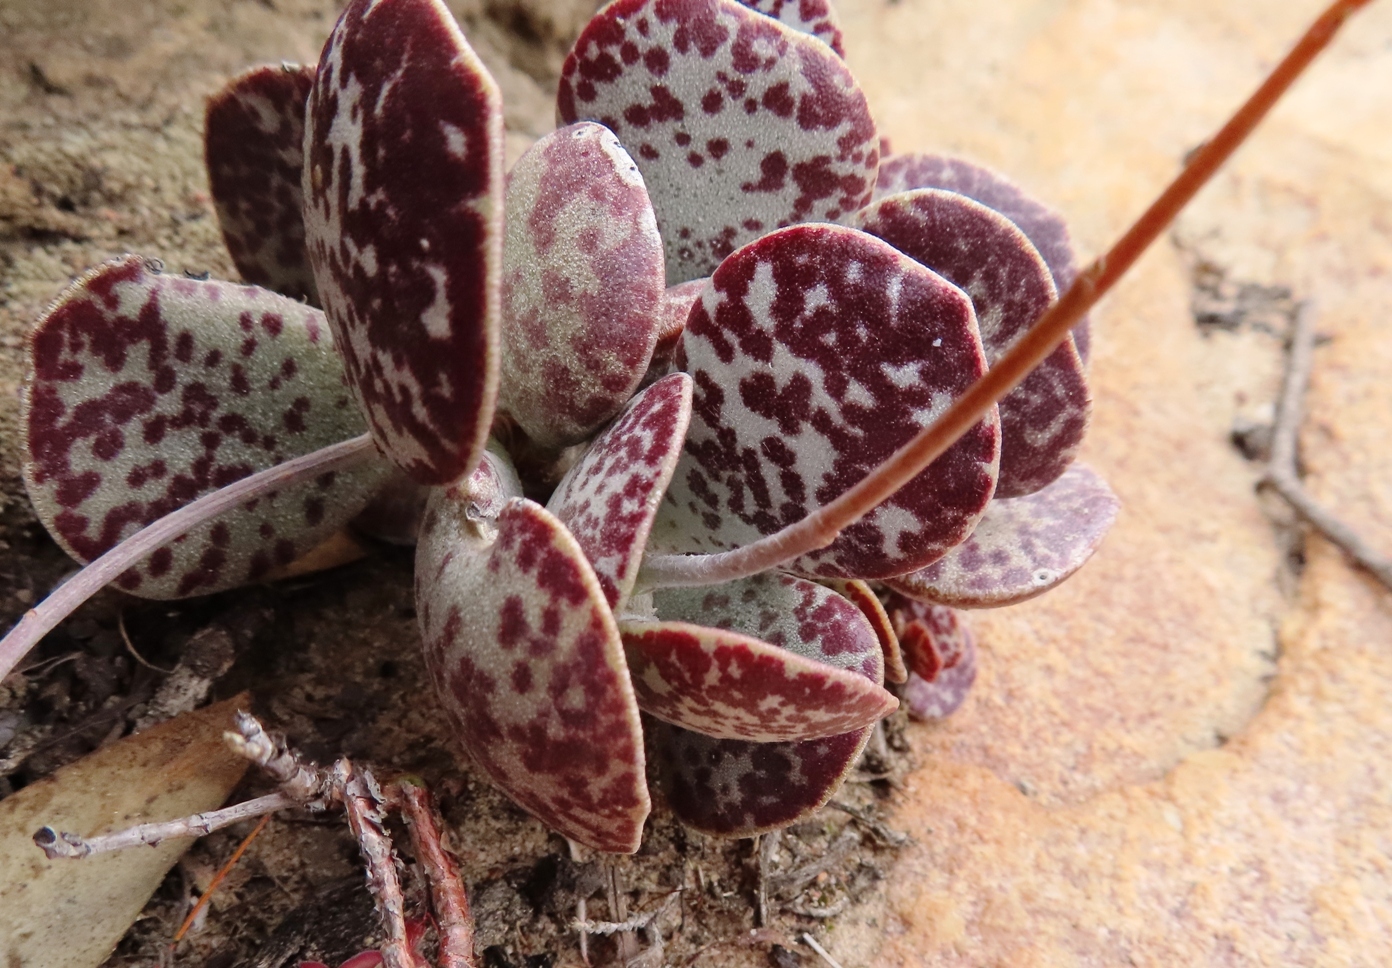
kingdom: Plantae
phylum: Tracheophyta
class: Magnoliopsida
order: Saxifragales
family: Crassulaceae
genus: Adromischus
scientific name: Adromischus hemisphaericus
